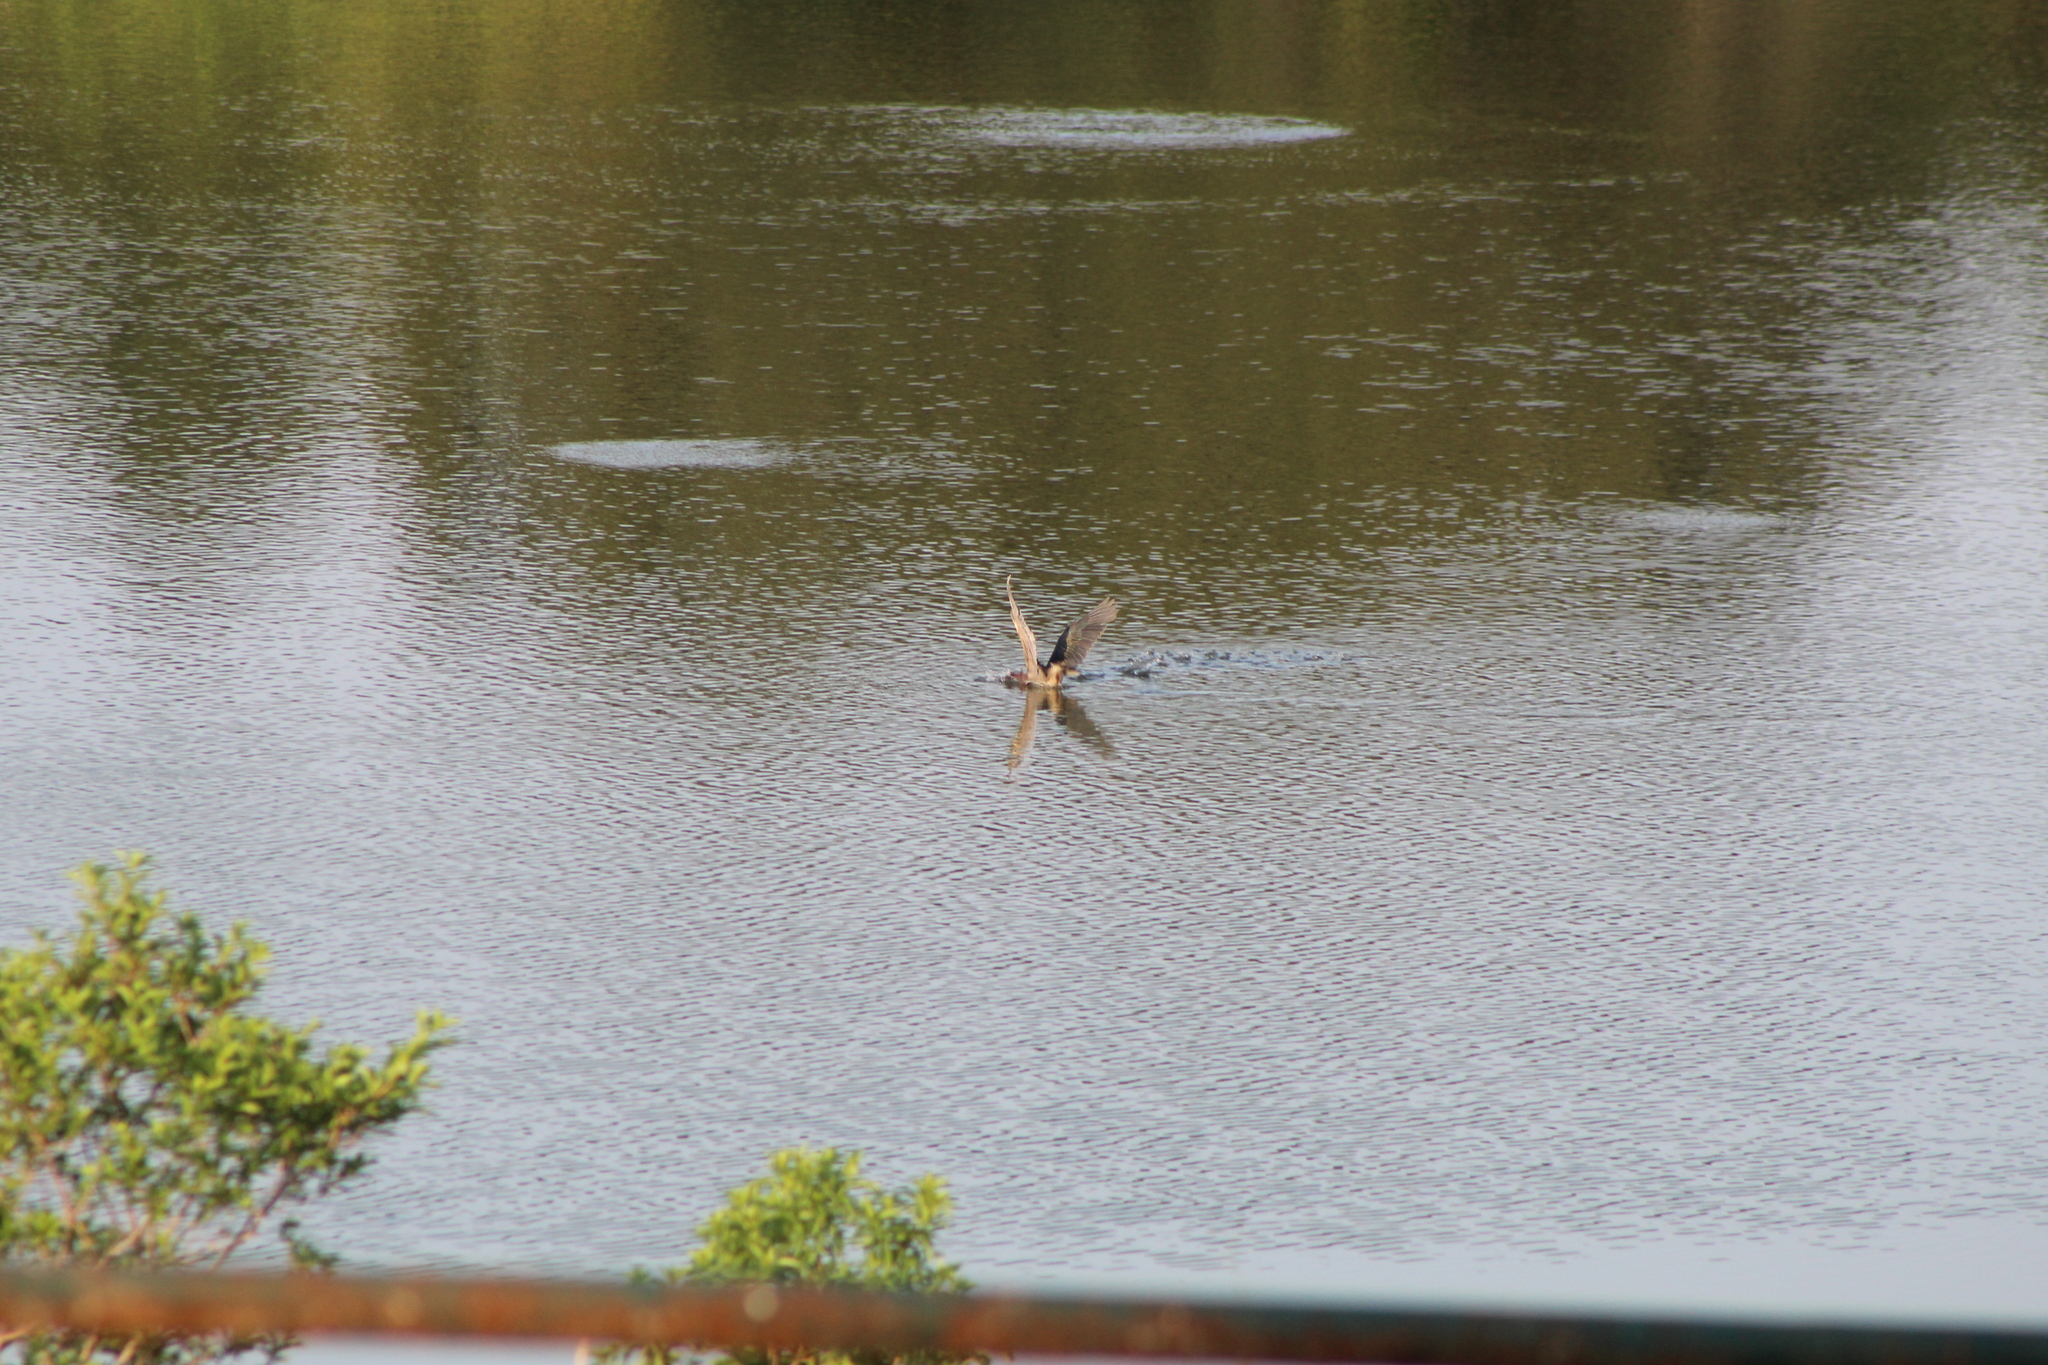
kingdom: Animalia
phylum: Chordata
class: Aves
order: Pelecaniformes
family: Ardeidae
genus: Butorides
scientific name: Butorides virescens
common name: Green heron
